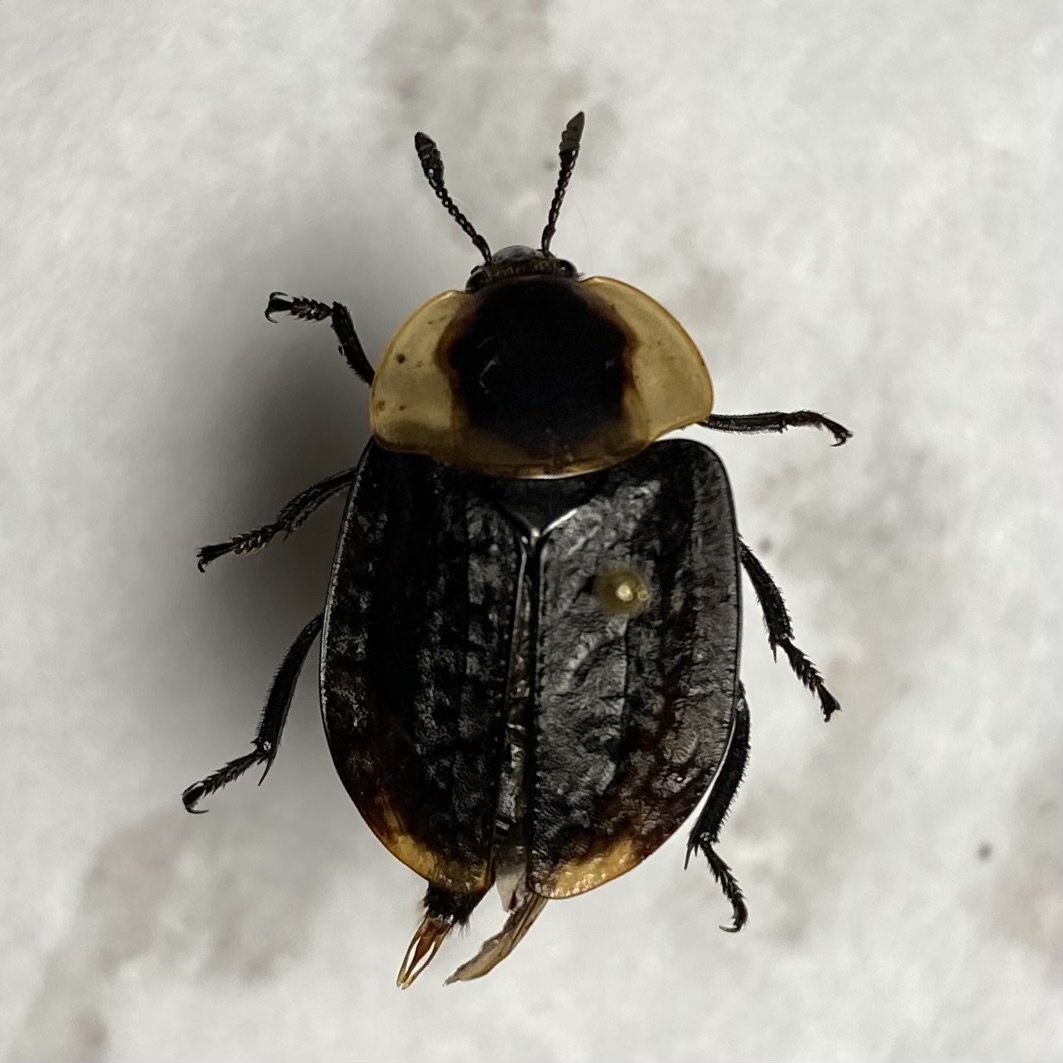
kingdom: Animalia
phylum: Arthropoda
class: Insecta
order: Coleoptera
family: Staphylinidae
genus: Necrophila
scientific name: Necrophila americana
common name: American carrion beetle
